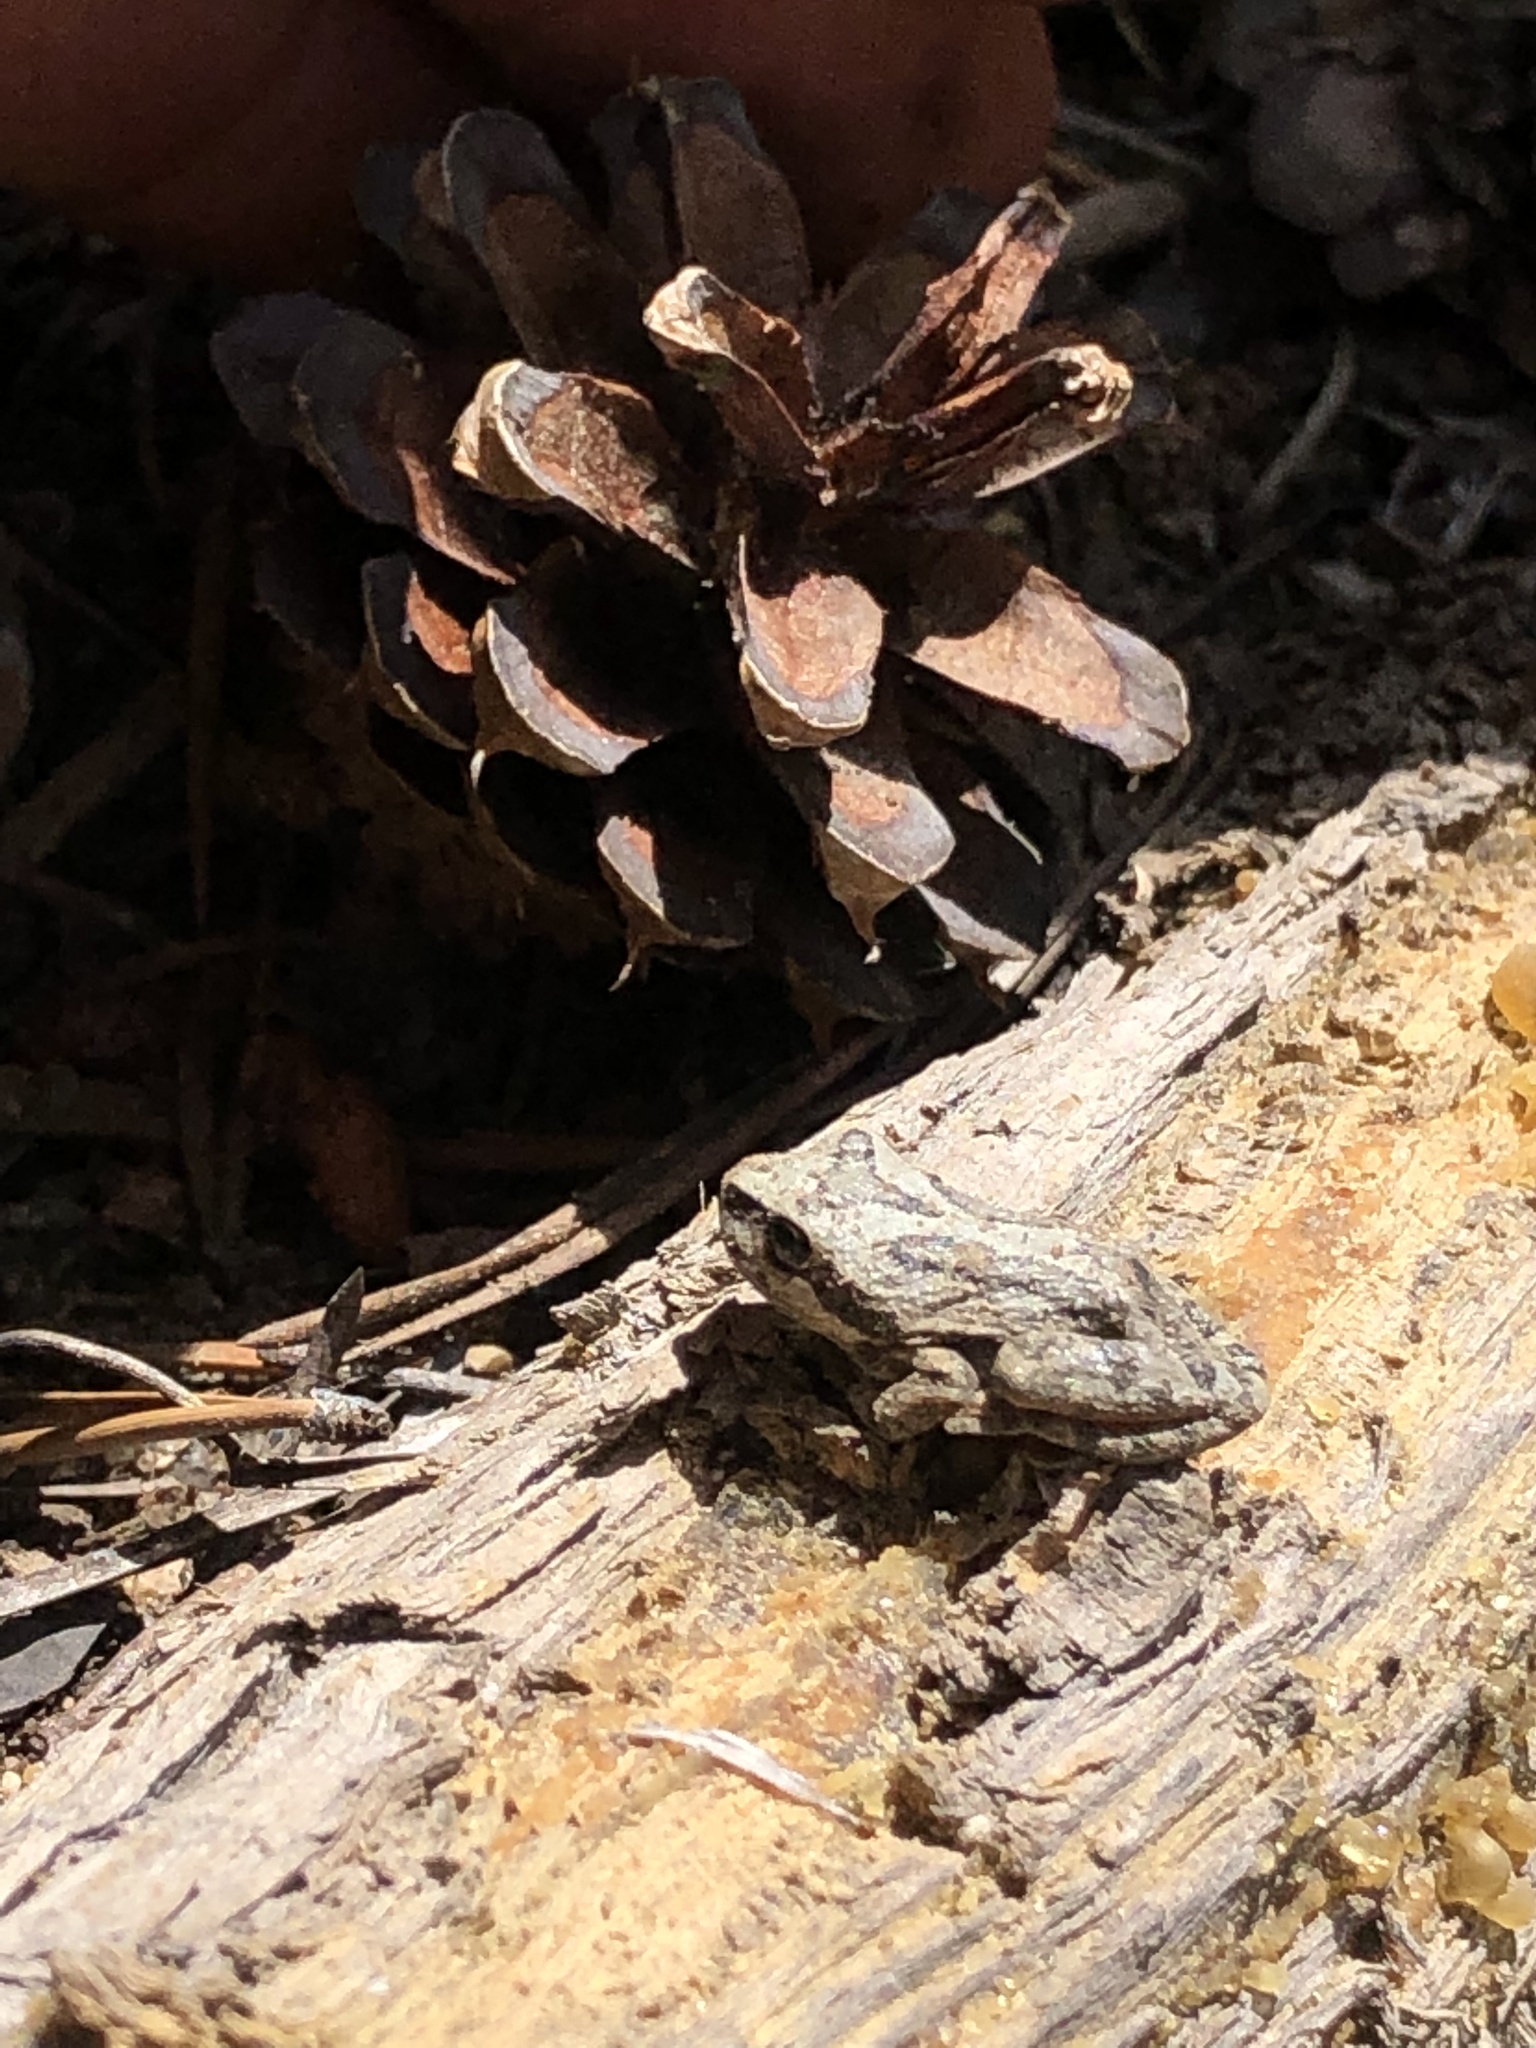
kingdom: Animalia
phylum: Chordata
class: Amphibia
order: Anura
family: Hylidae
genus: Pseudacris
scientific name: Pseudacris regilla
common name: Pacific chorus frog
